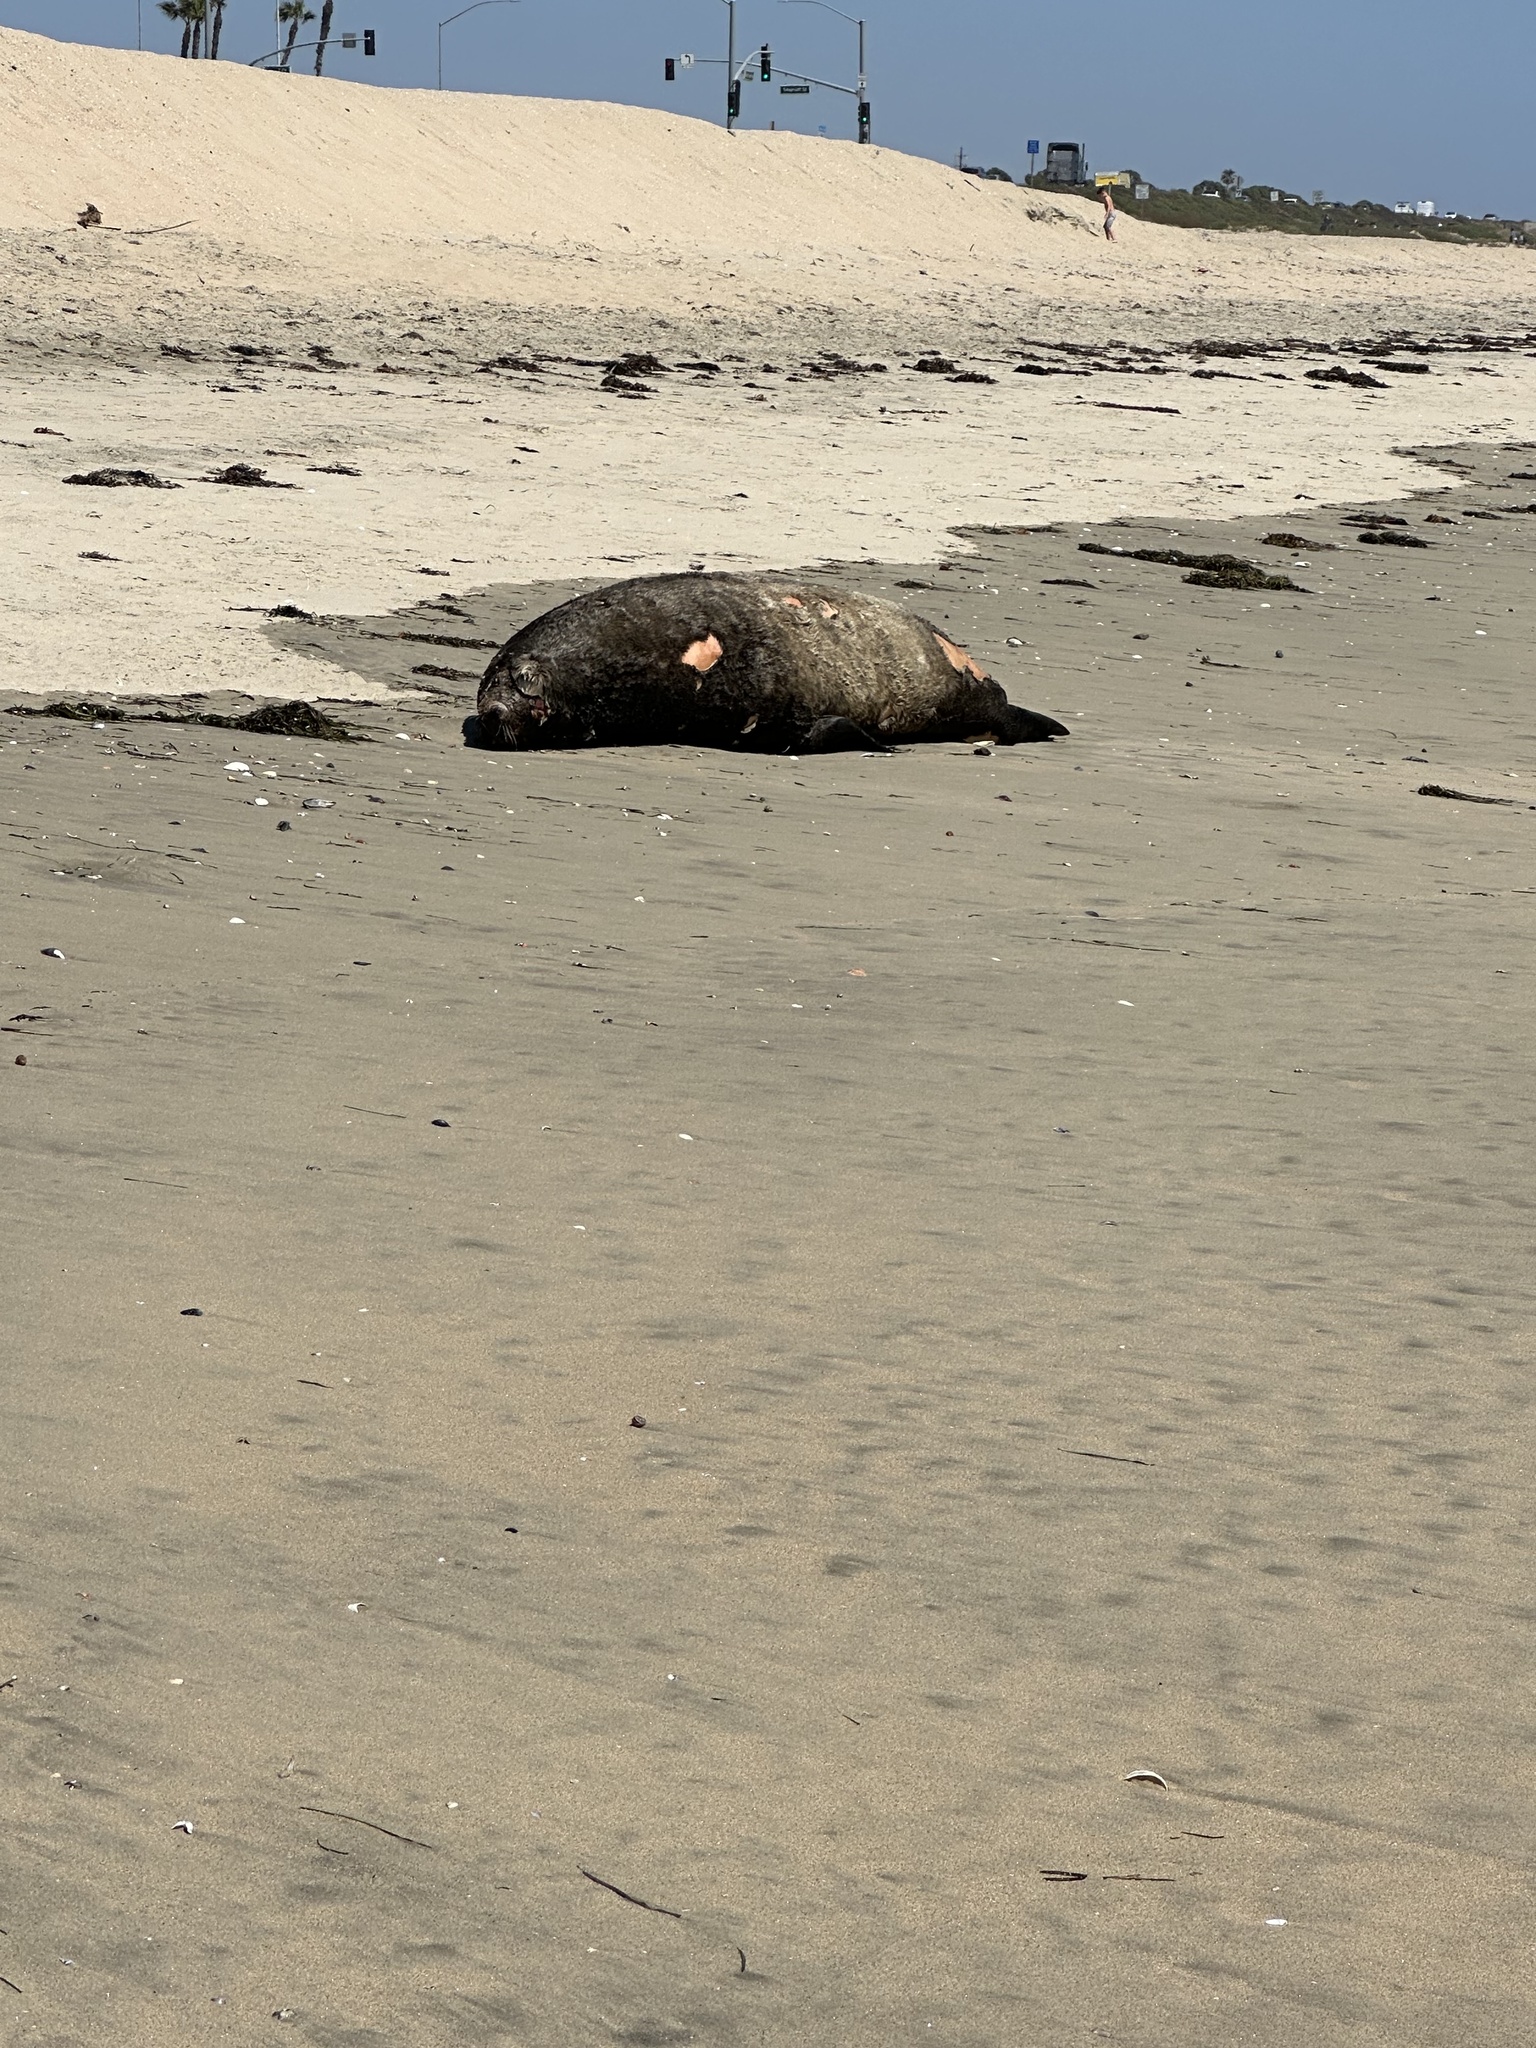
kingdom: Animalia
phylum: Chordata
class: Mammalia
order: Carnivora
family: Otariidae
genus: Zalophus
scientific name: Zalophus californianus
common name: California sea lion
